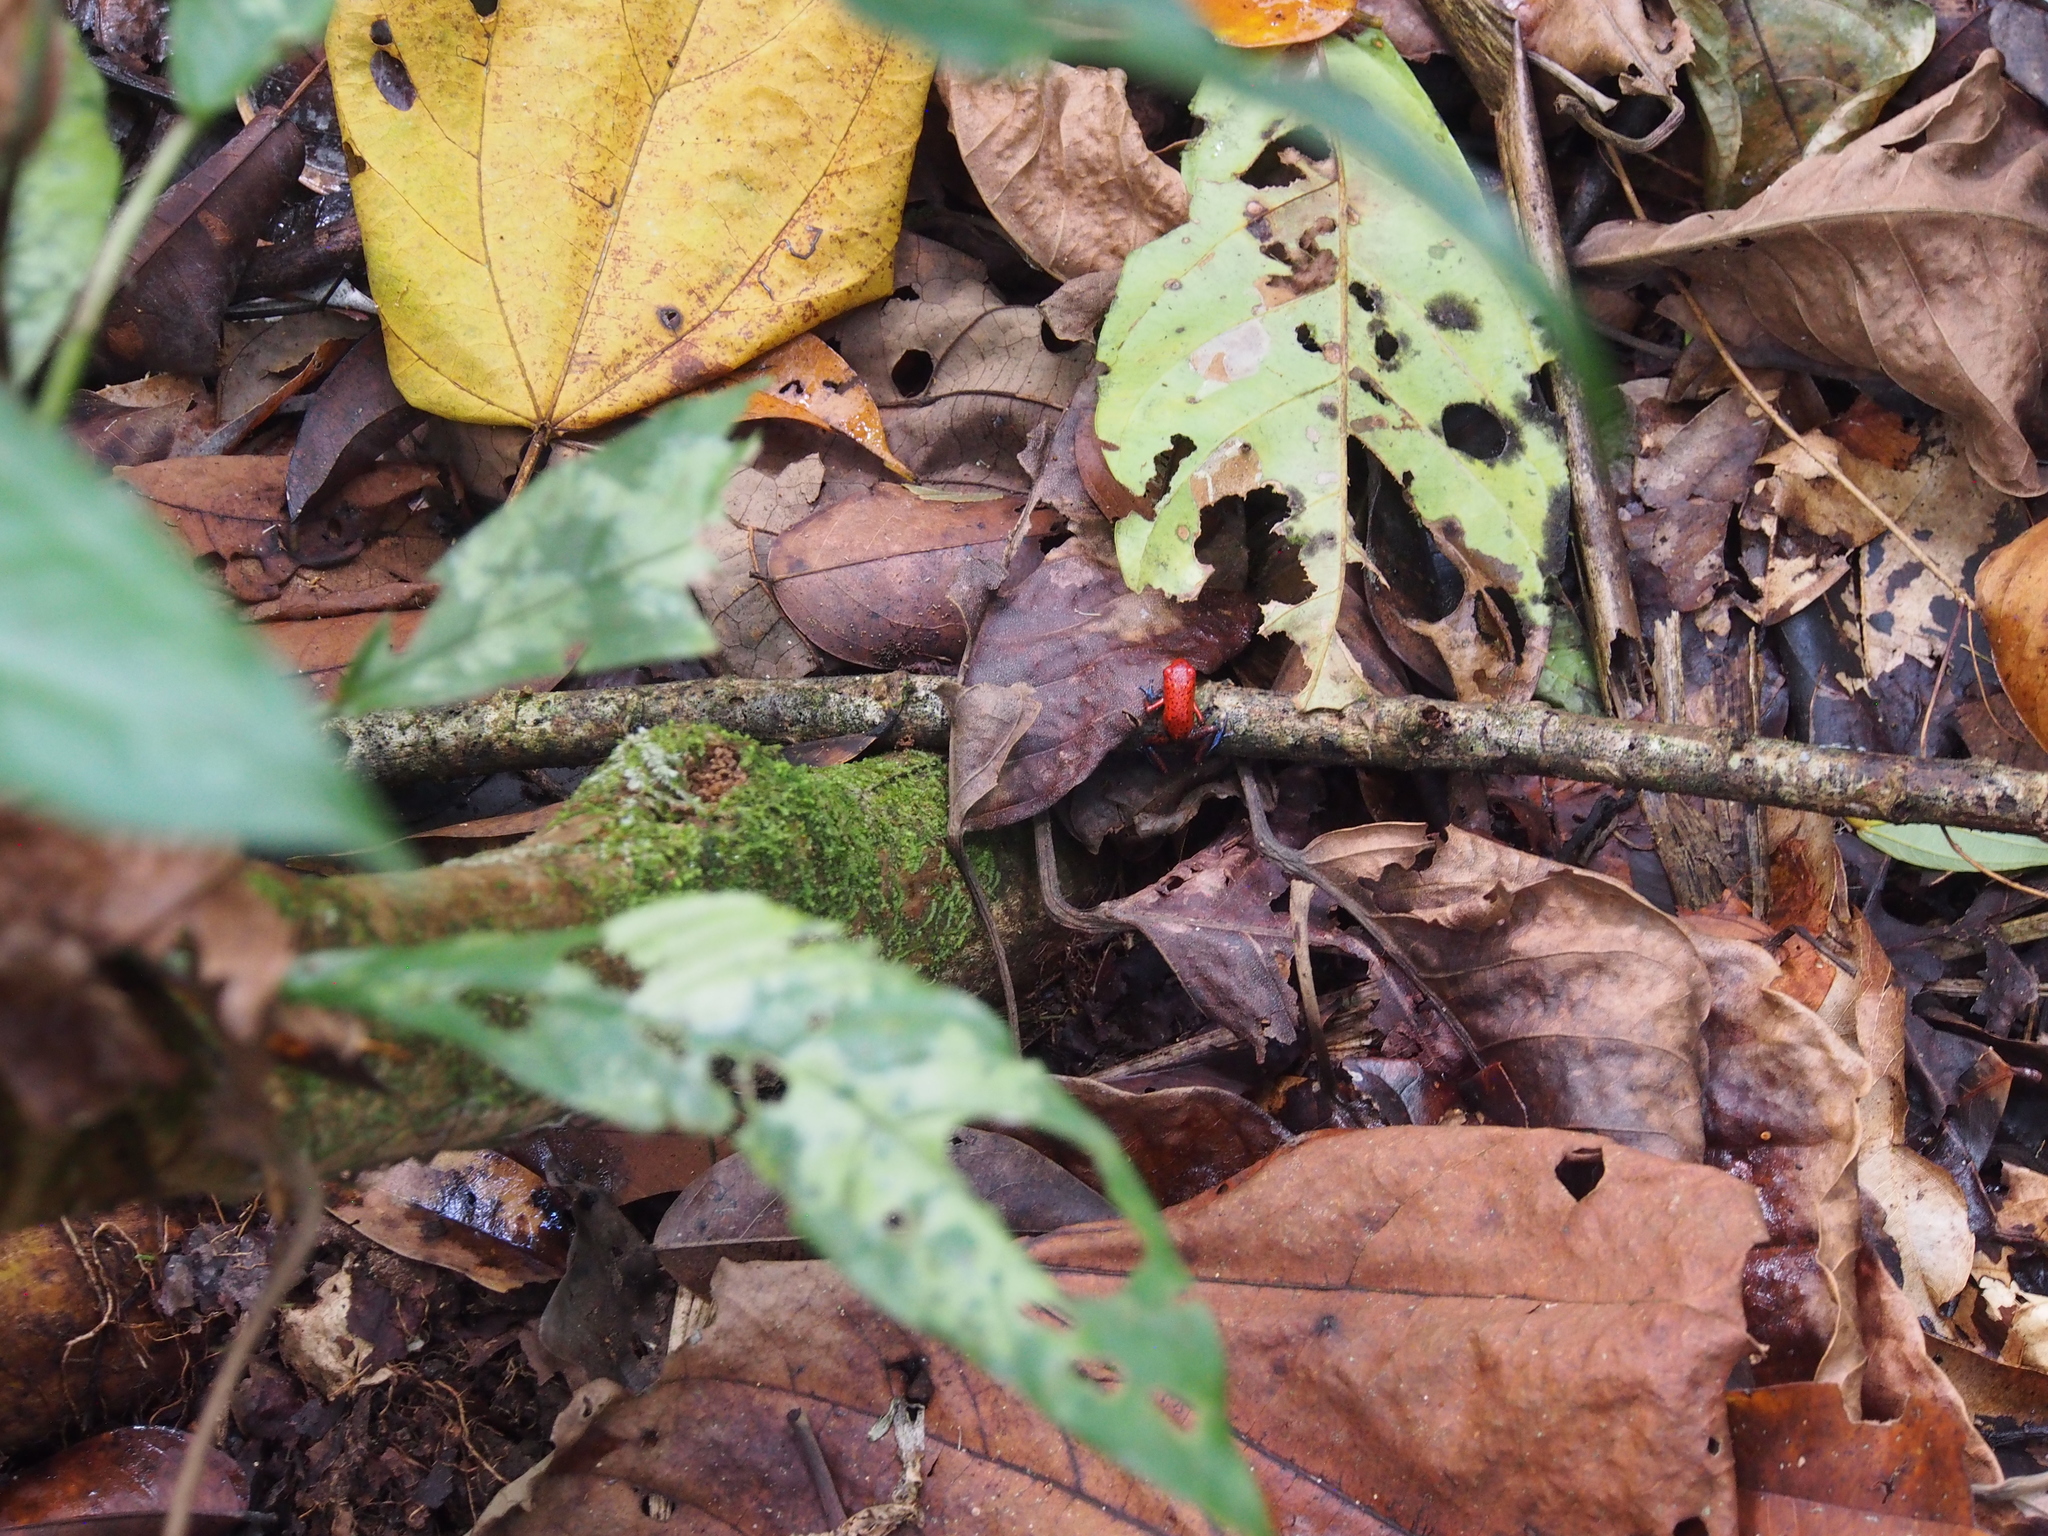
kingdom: Animalia
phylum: Chordata
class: Amphibia
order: Anura
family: Dendrobatidae
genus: Oophaga
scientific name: Oophaga pumilio
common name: Flaming poison frog
